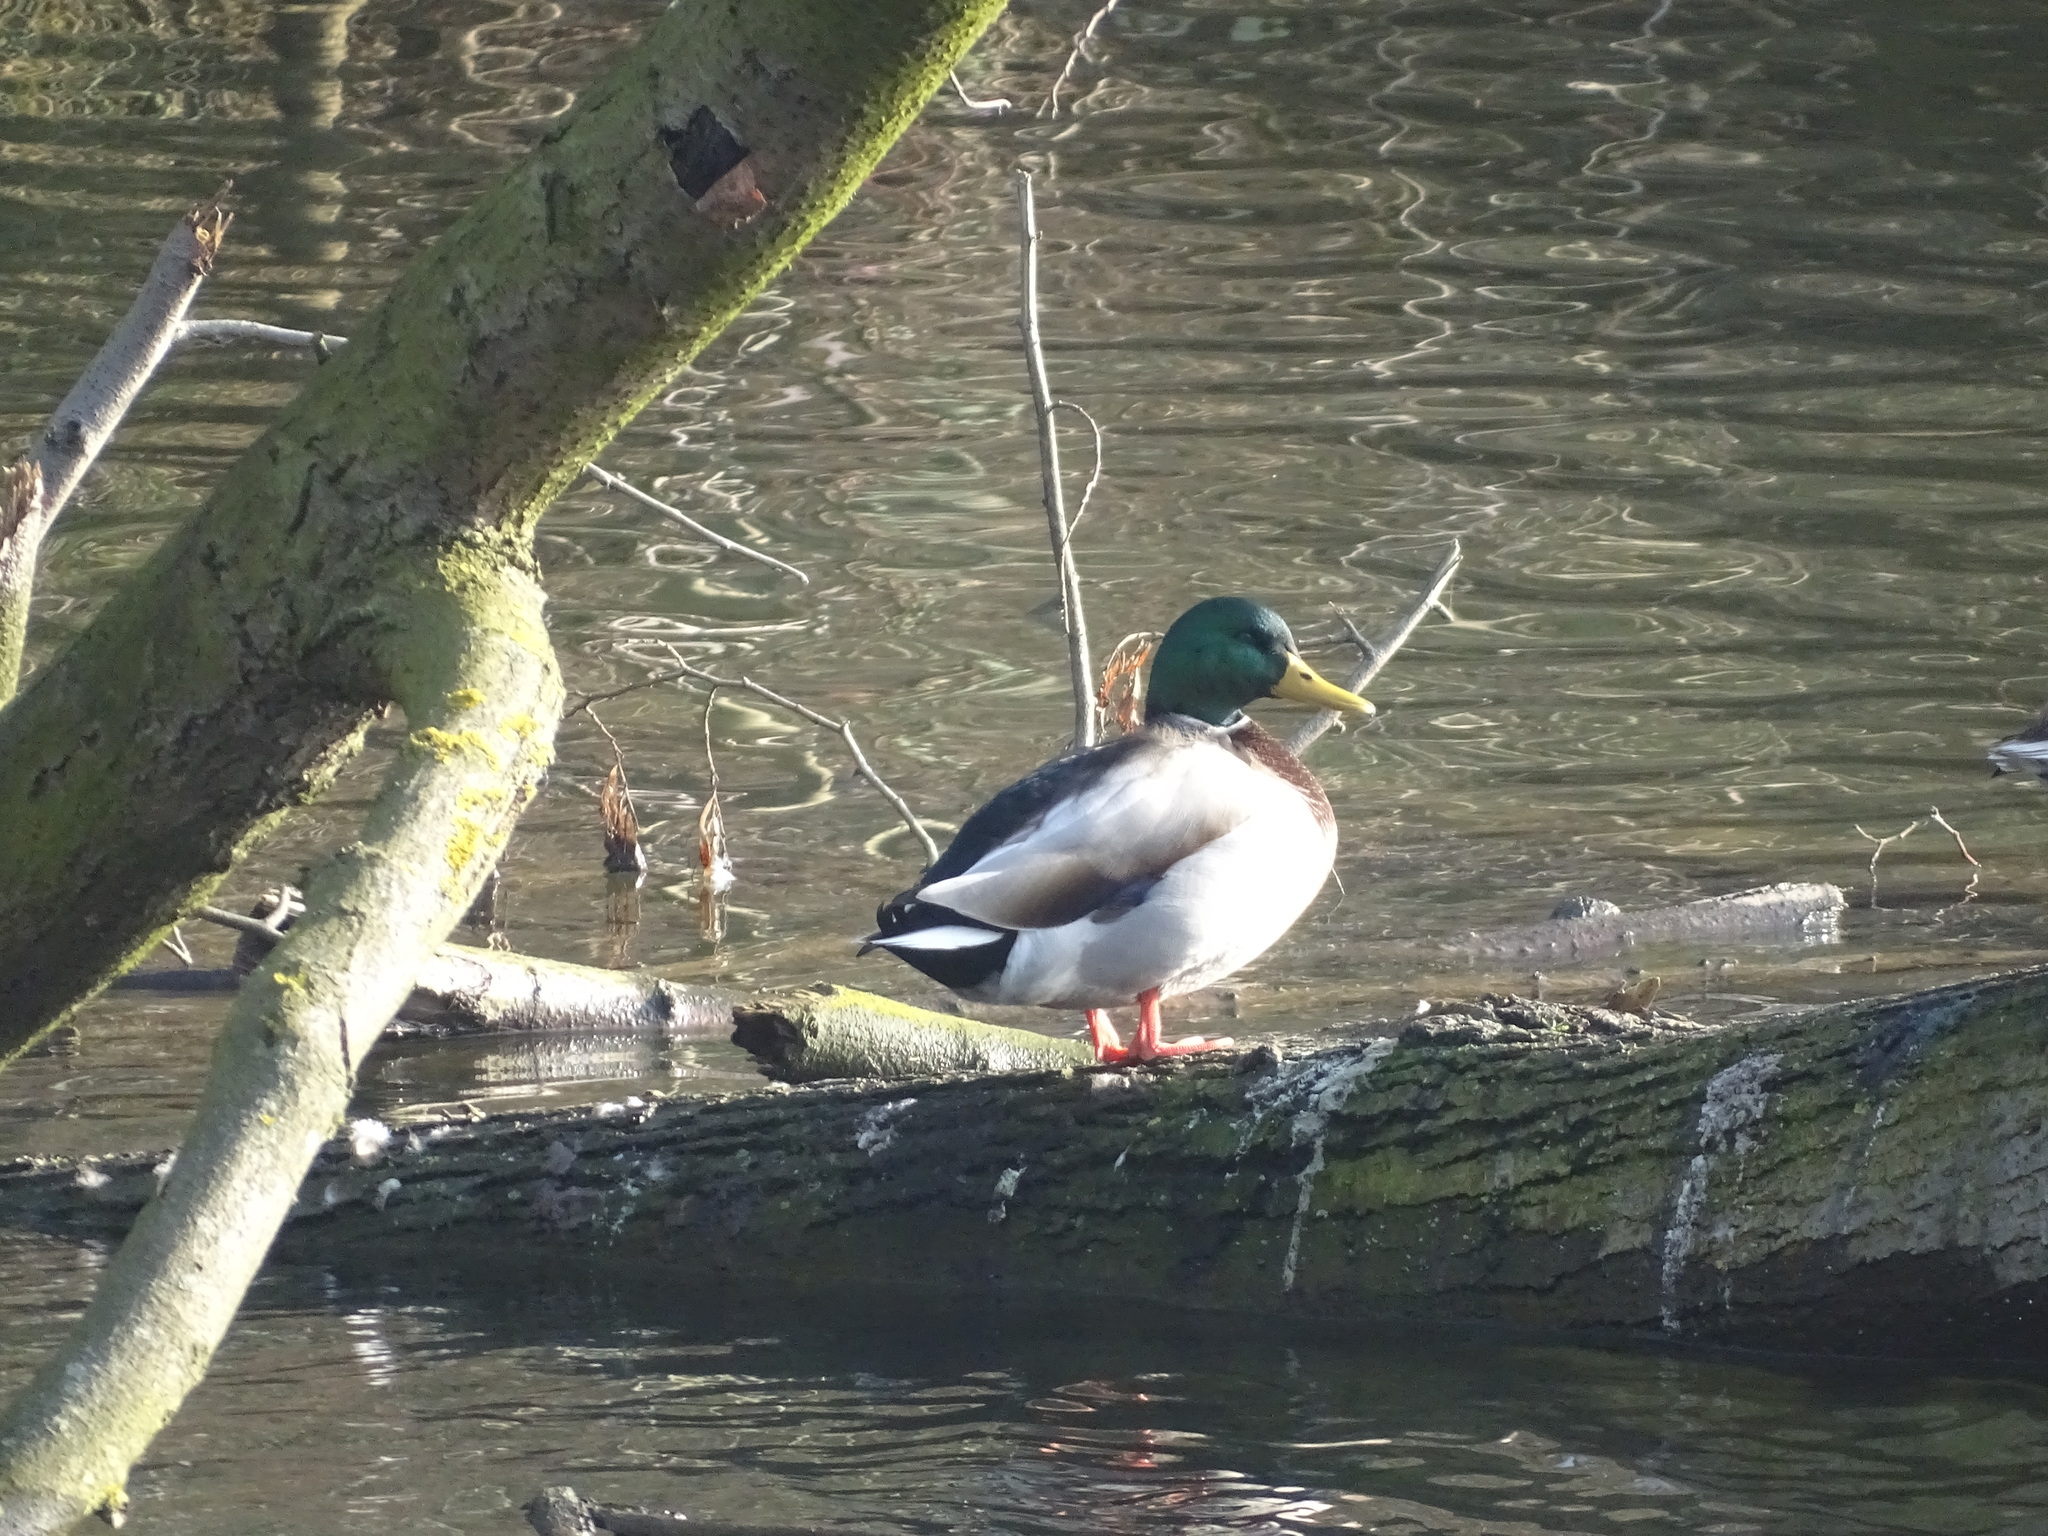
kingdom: Animalia
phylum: Chordata
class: Aves
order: Anseriformes
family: Anatidae
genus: Anas
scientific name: Anas platyrhynchos
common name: Mallard
